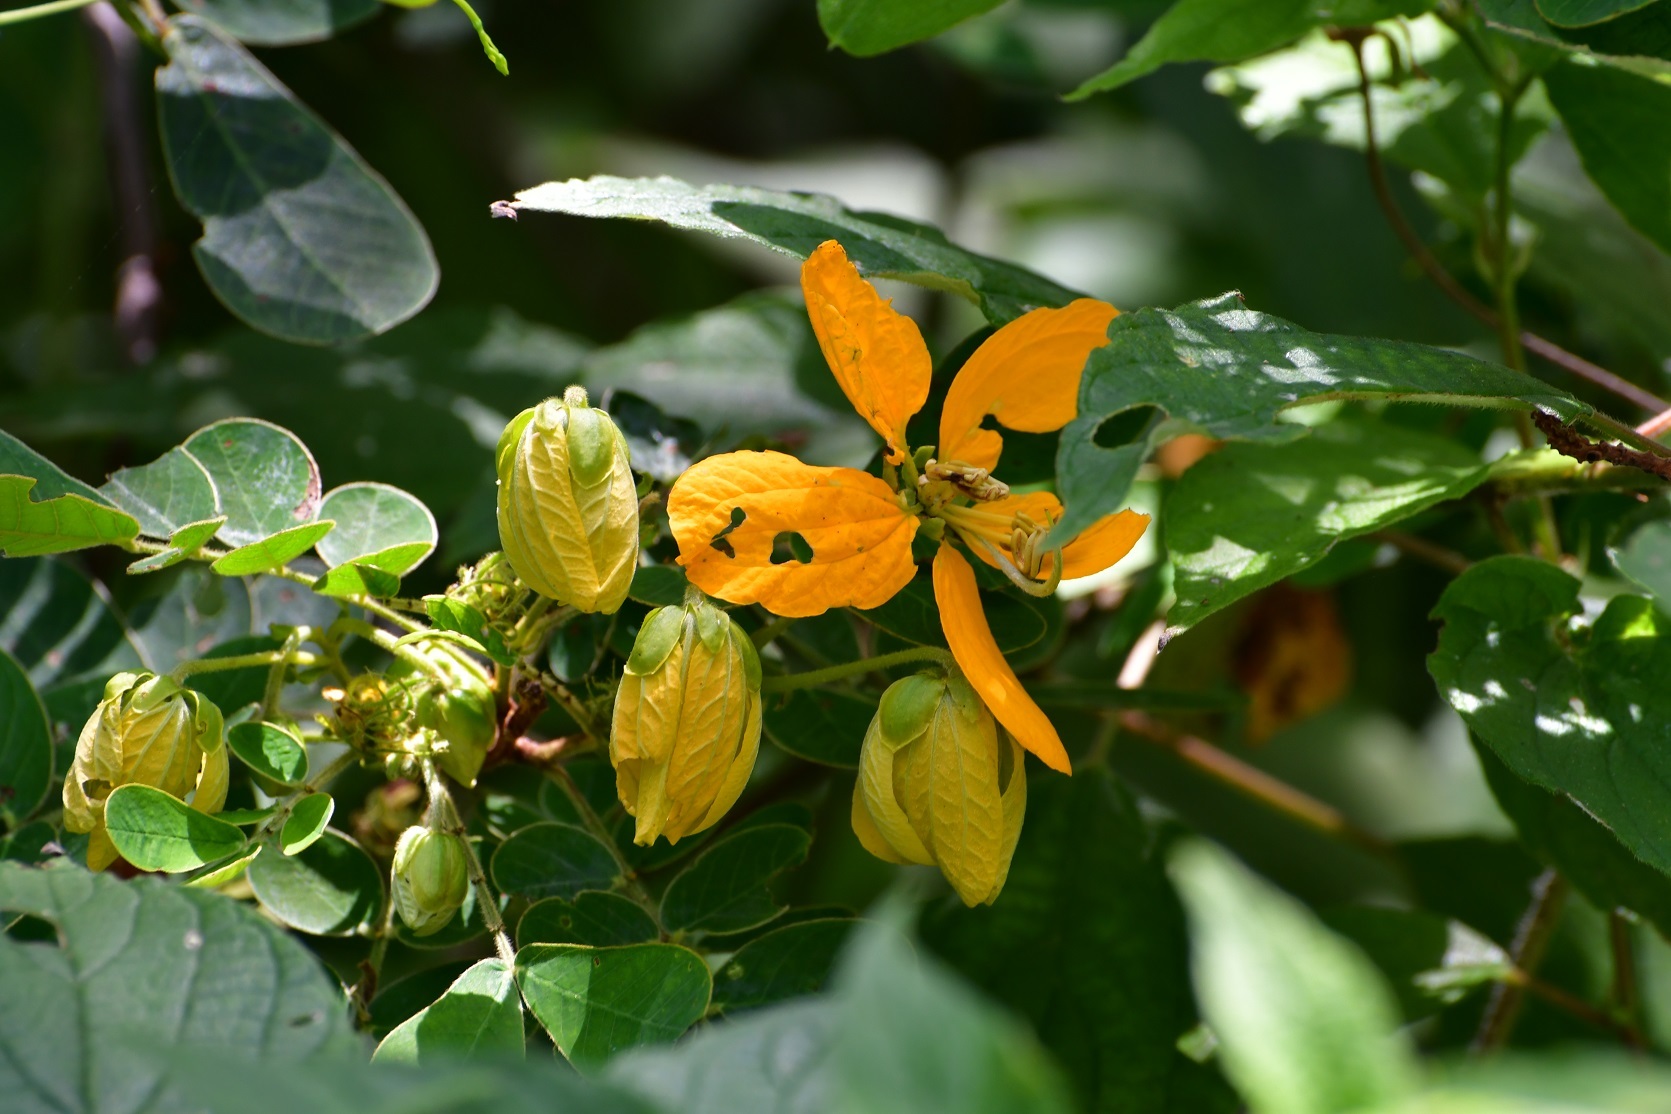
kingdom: Plantae
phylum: Tracheophyta
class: Magnoliopsida
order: Fabales
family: Fabaceae
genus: Senna
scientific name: Senna skinneri
